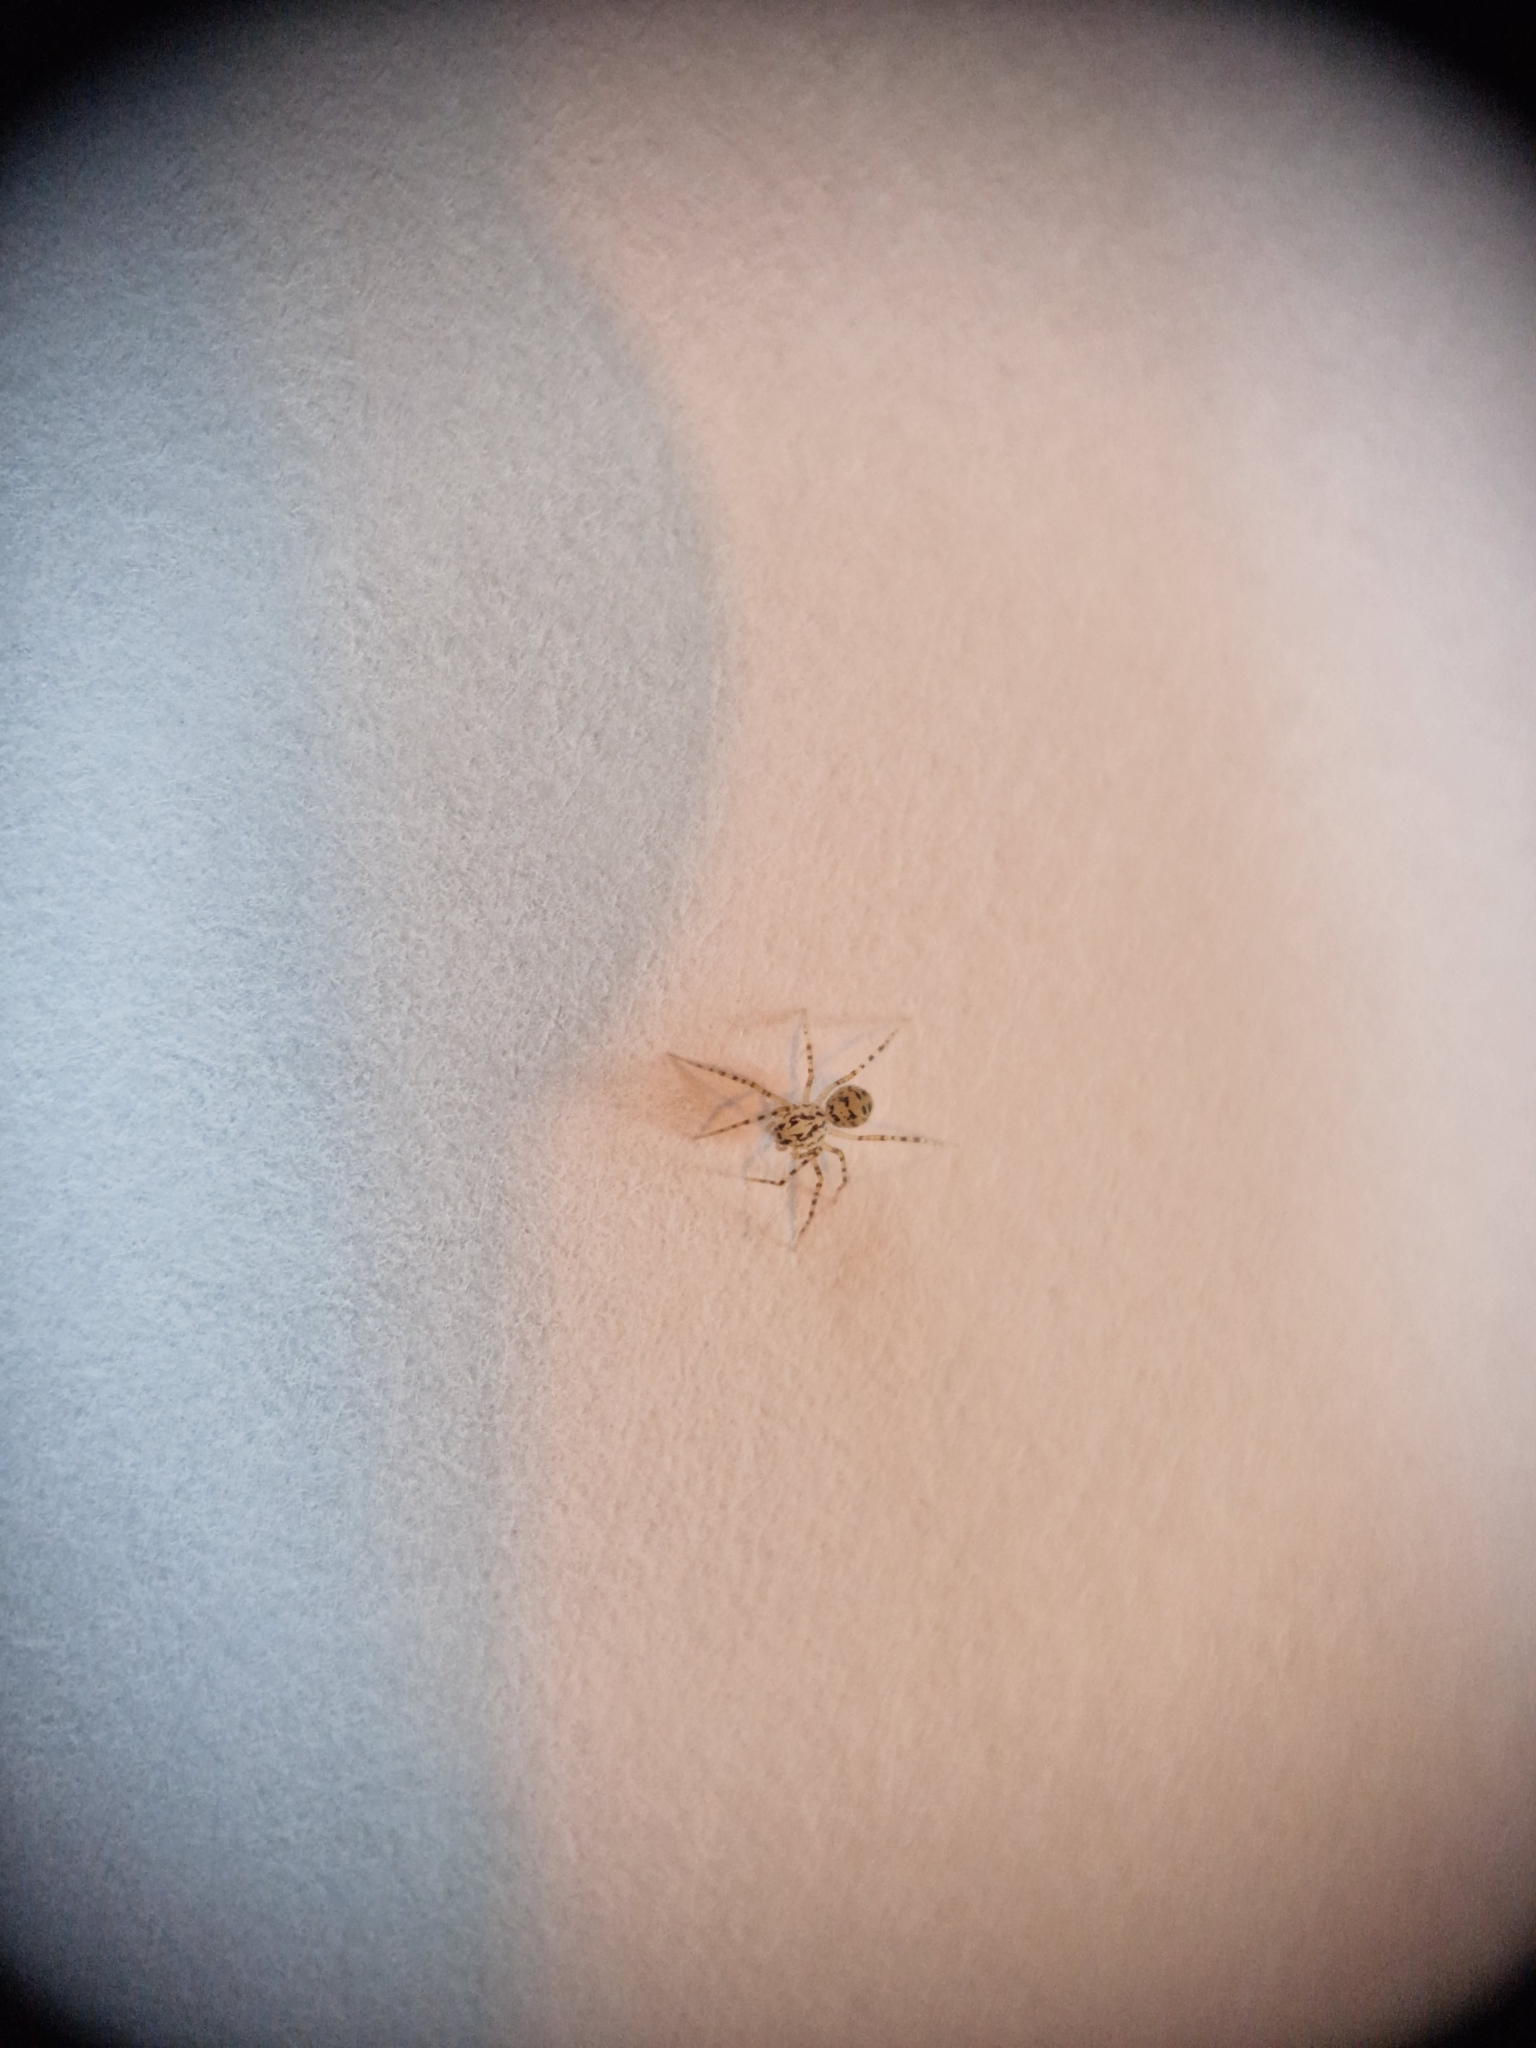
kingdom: Animalia
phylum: Arthropoda
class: Arachnida
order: Araneae
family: Scytodidae
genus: Scytodes
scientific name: Scytodes thoracica
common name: Spitting spider
